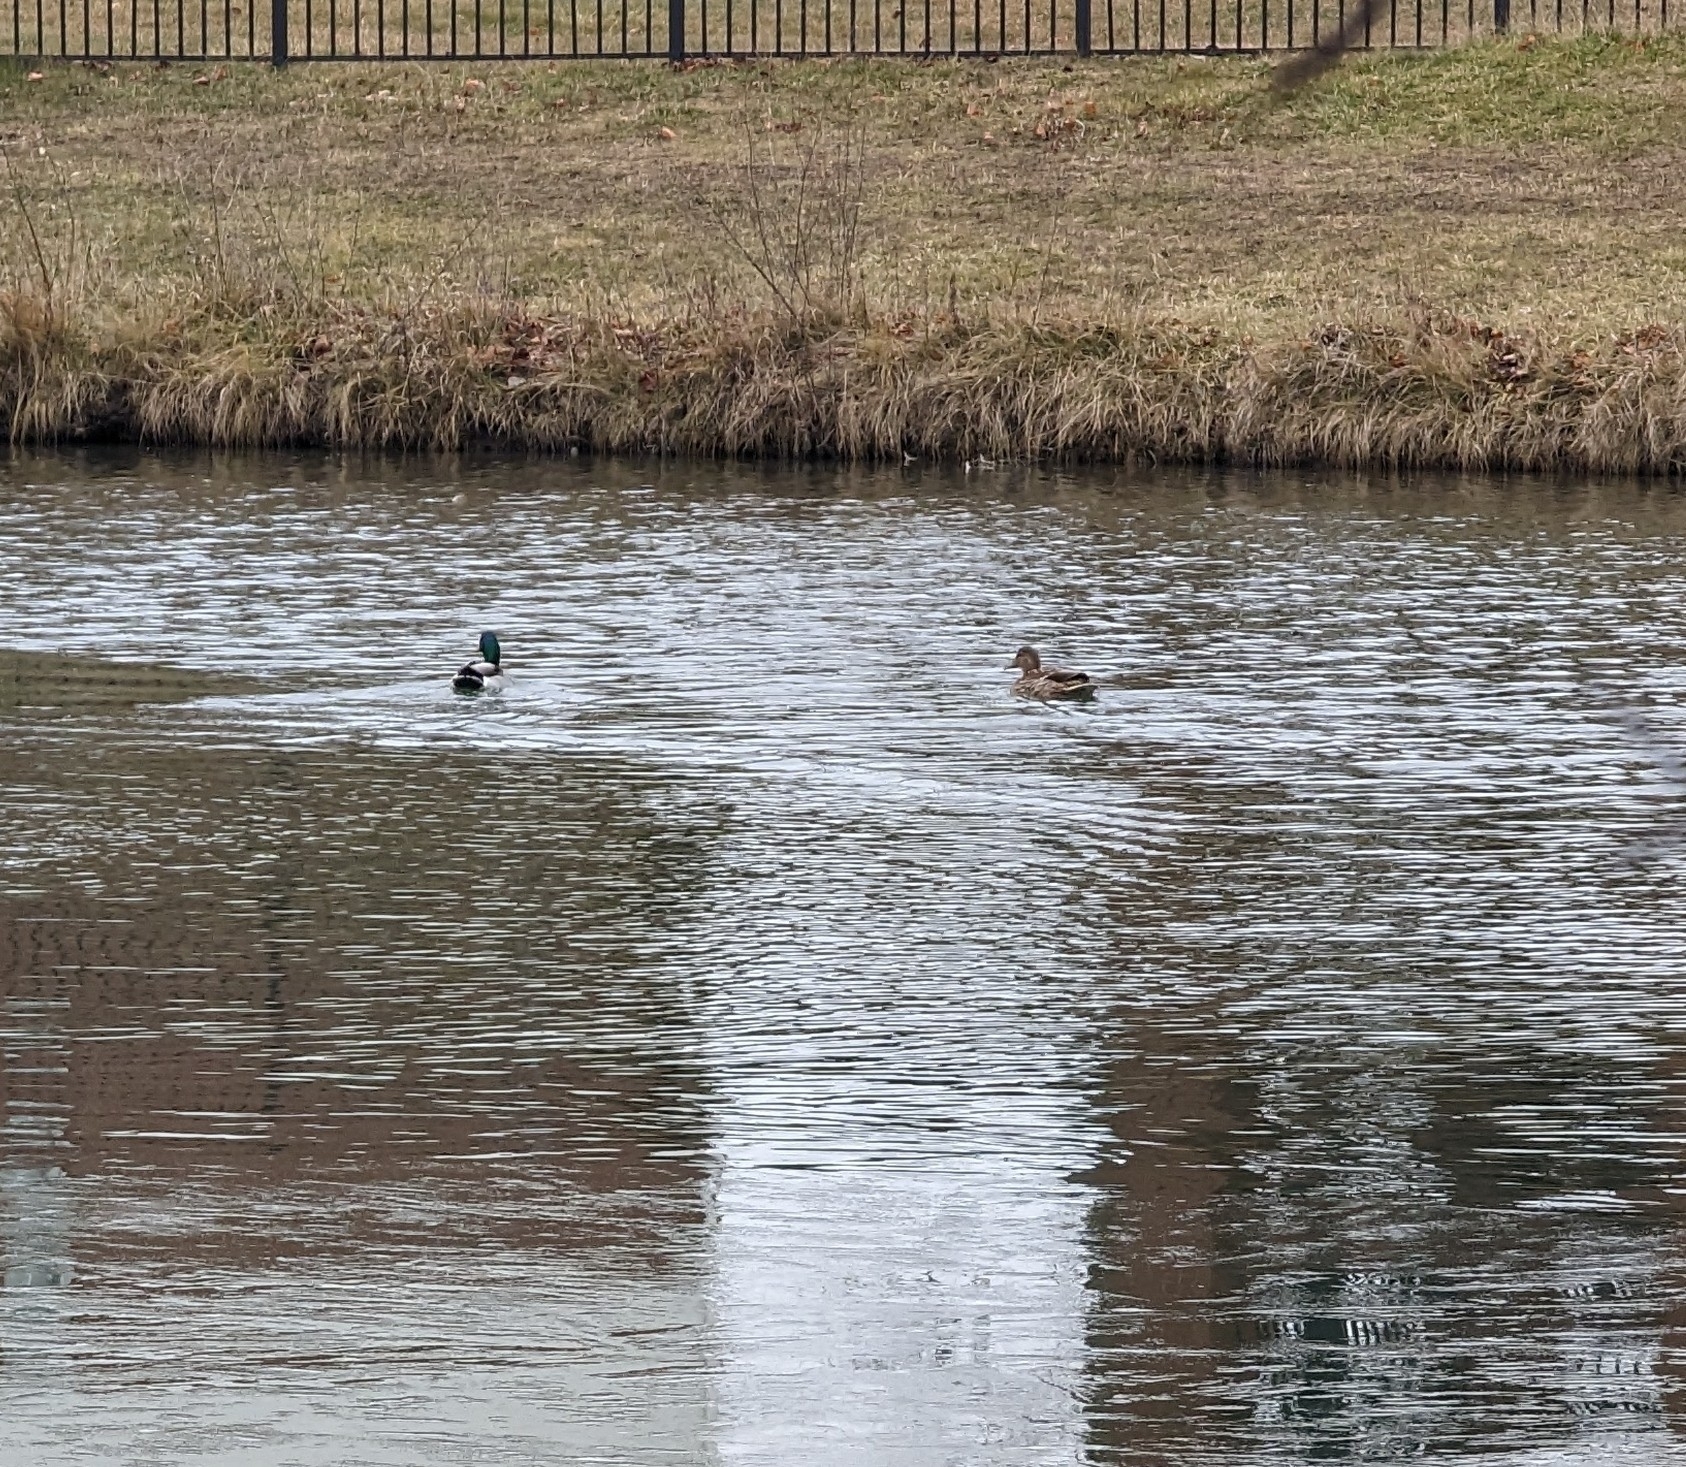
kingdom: Animalia
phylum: Chordata
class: Aves
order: Anseriformes
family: Anatidae
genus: Anas
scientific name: Anas platyrhynchos
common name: Mallard
